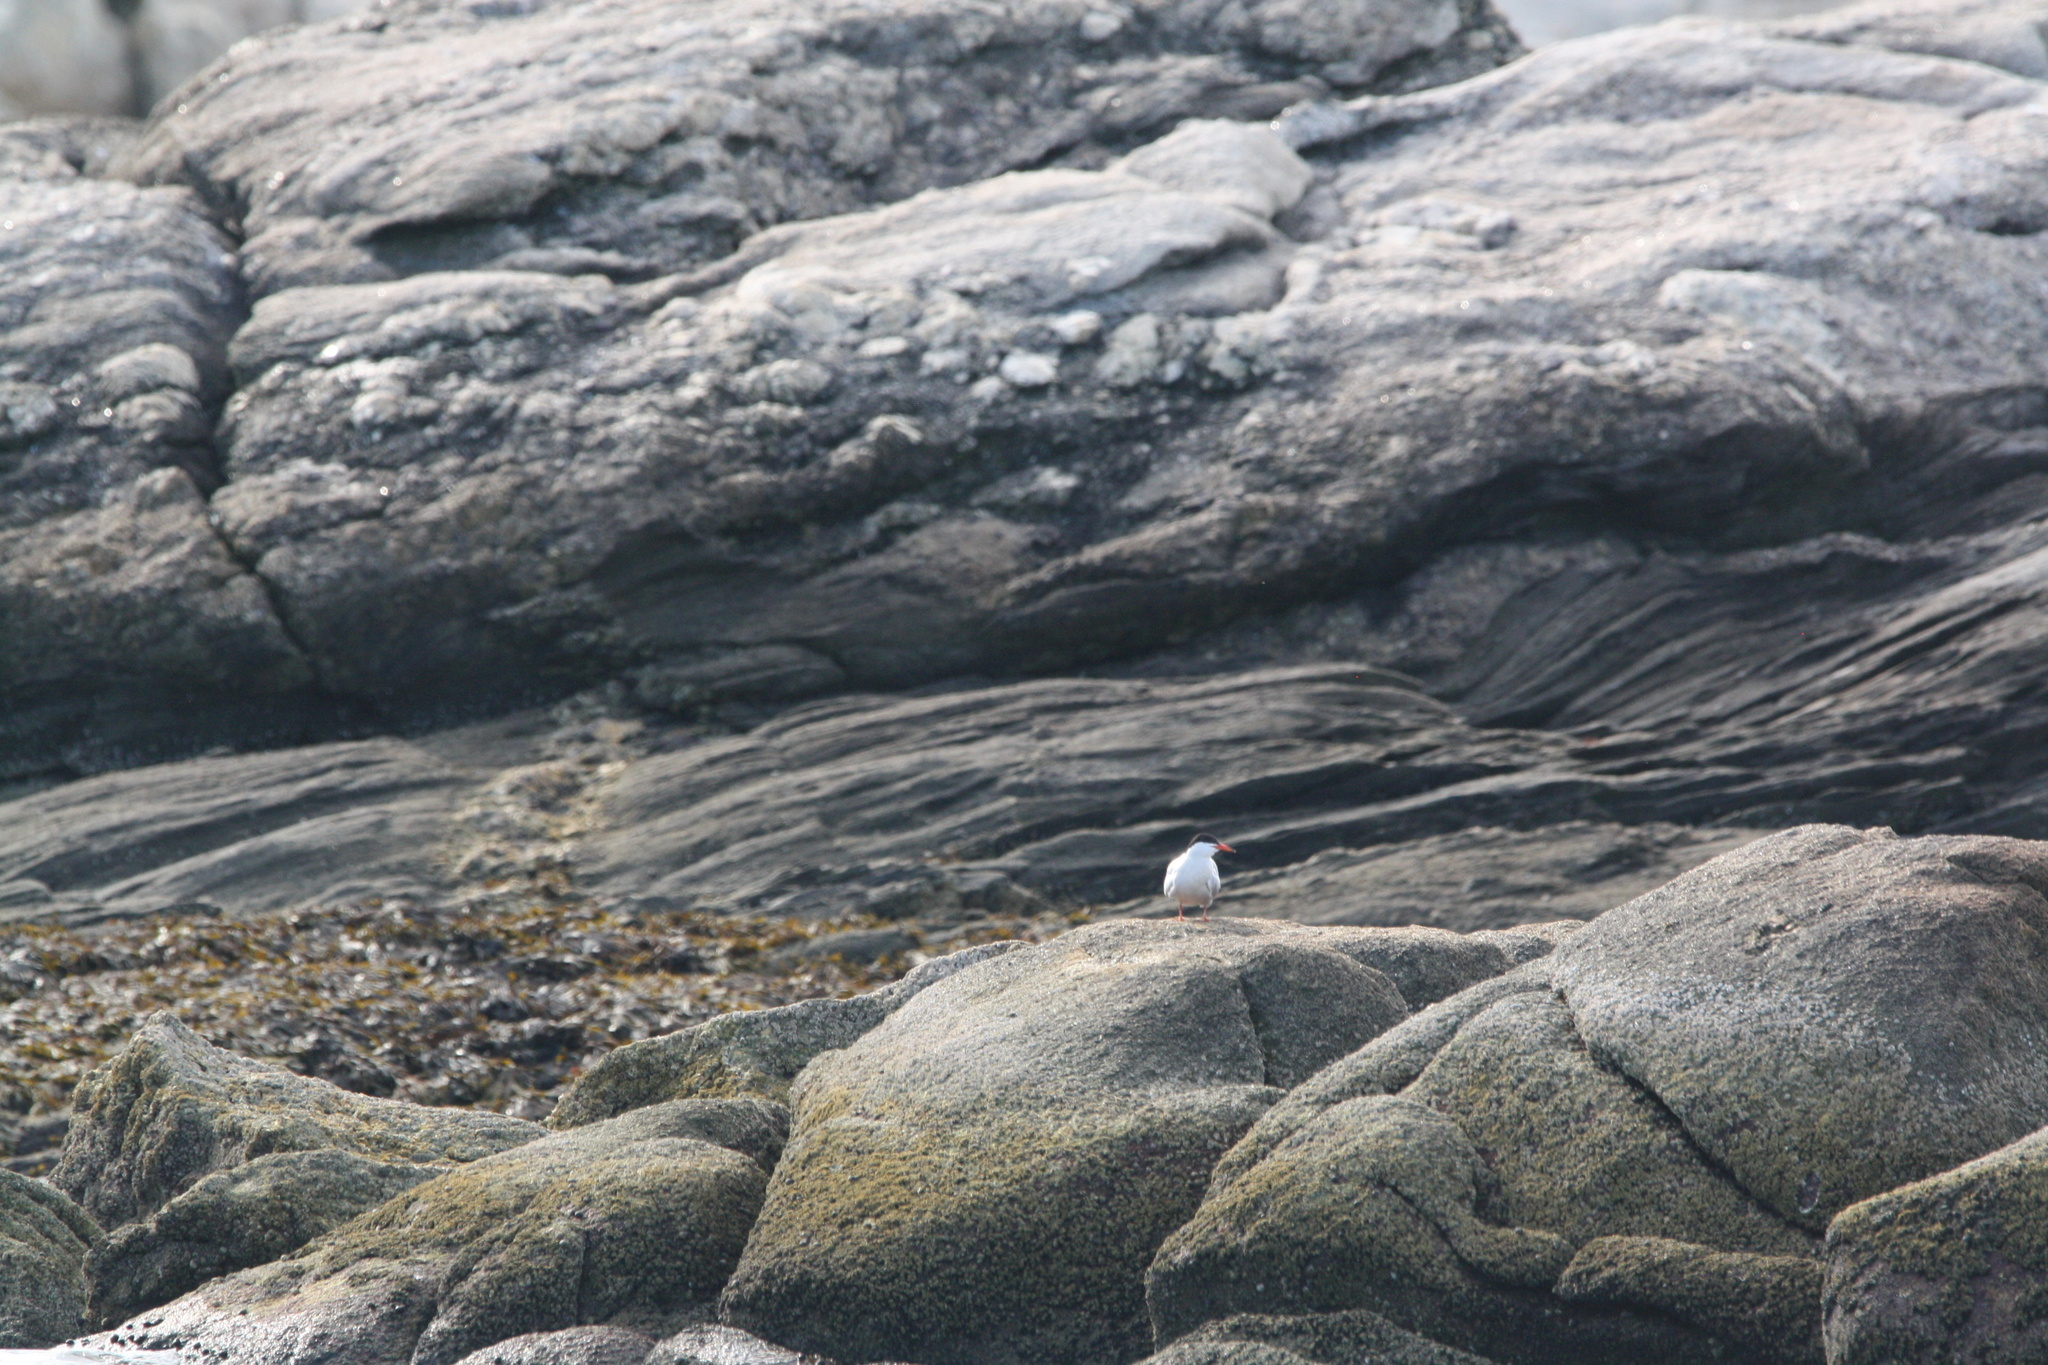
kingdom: Animalia
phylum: Chordata
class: Aves
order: Charadriiformes
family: Laridae
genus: Sterna
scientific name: Sterna hirundo
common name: Common tern
